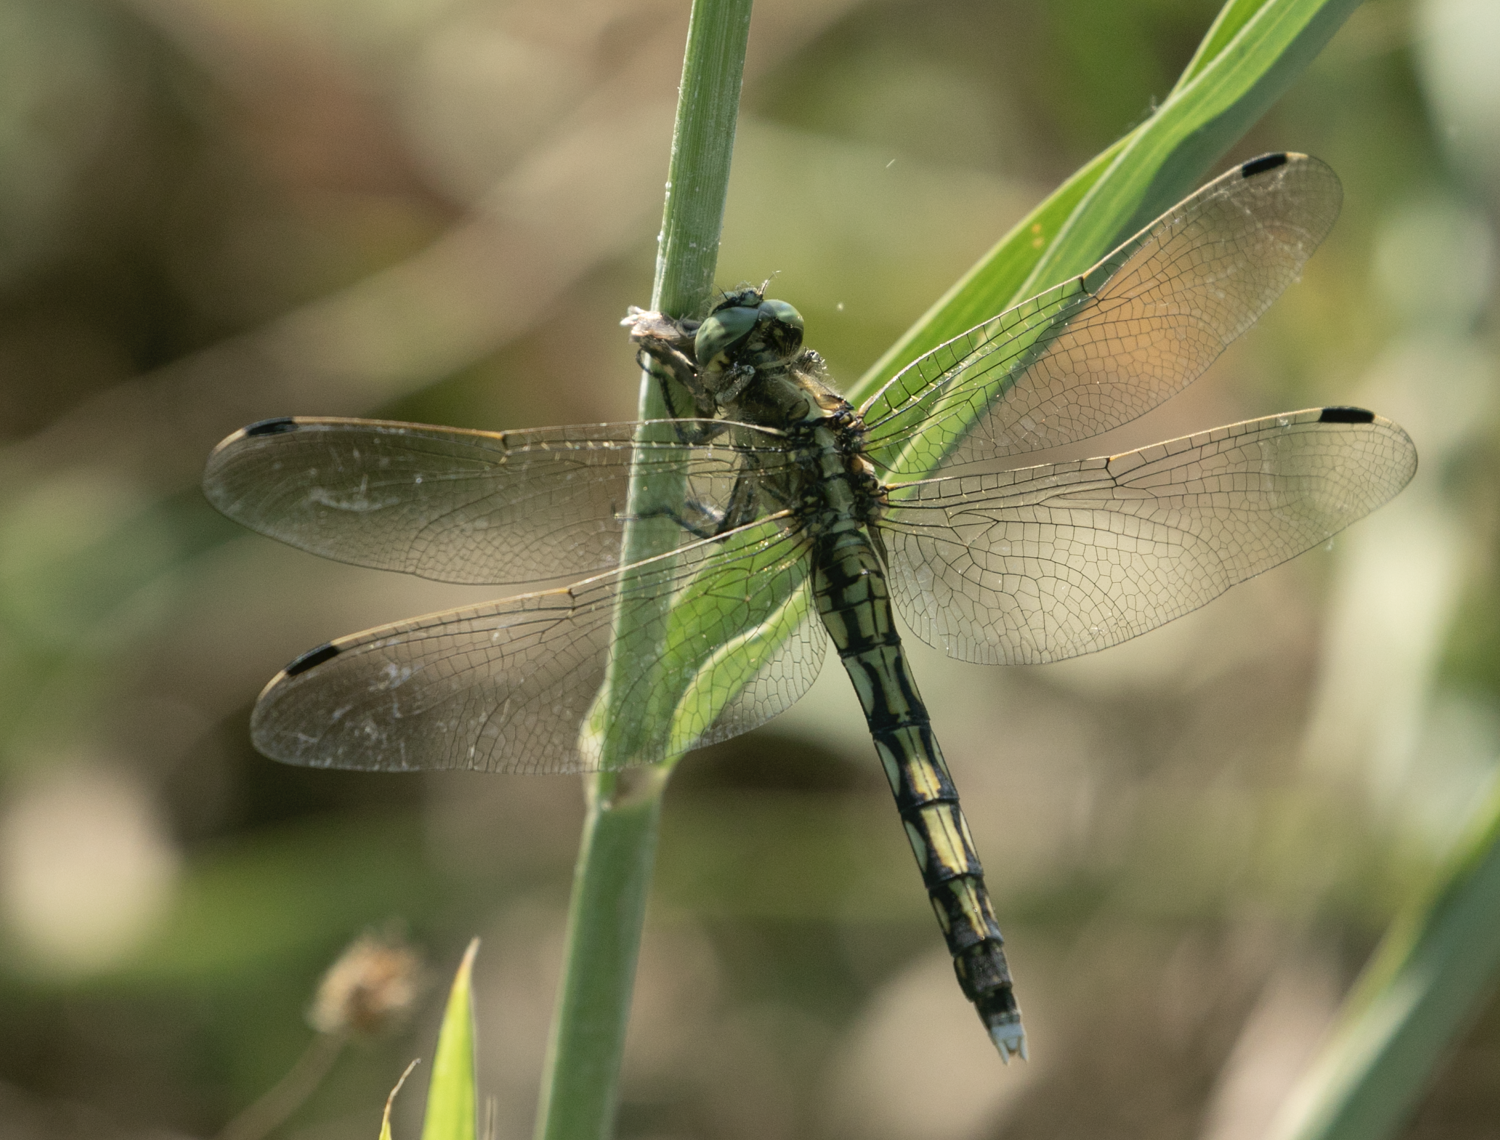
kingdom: Animalia
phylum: Arthropoda
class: Insecta
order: Odonata
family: Libellulidae
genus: Orthetrum
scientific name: Orthetrum albistylum
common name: White-tailed skimmer
